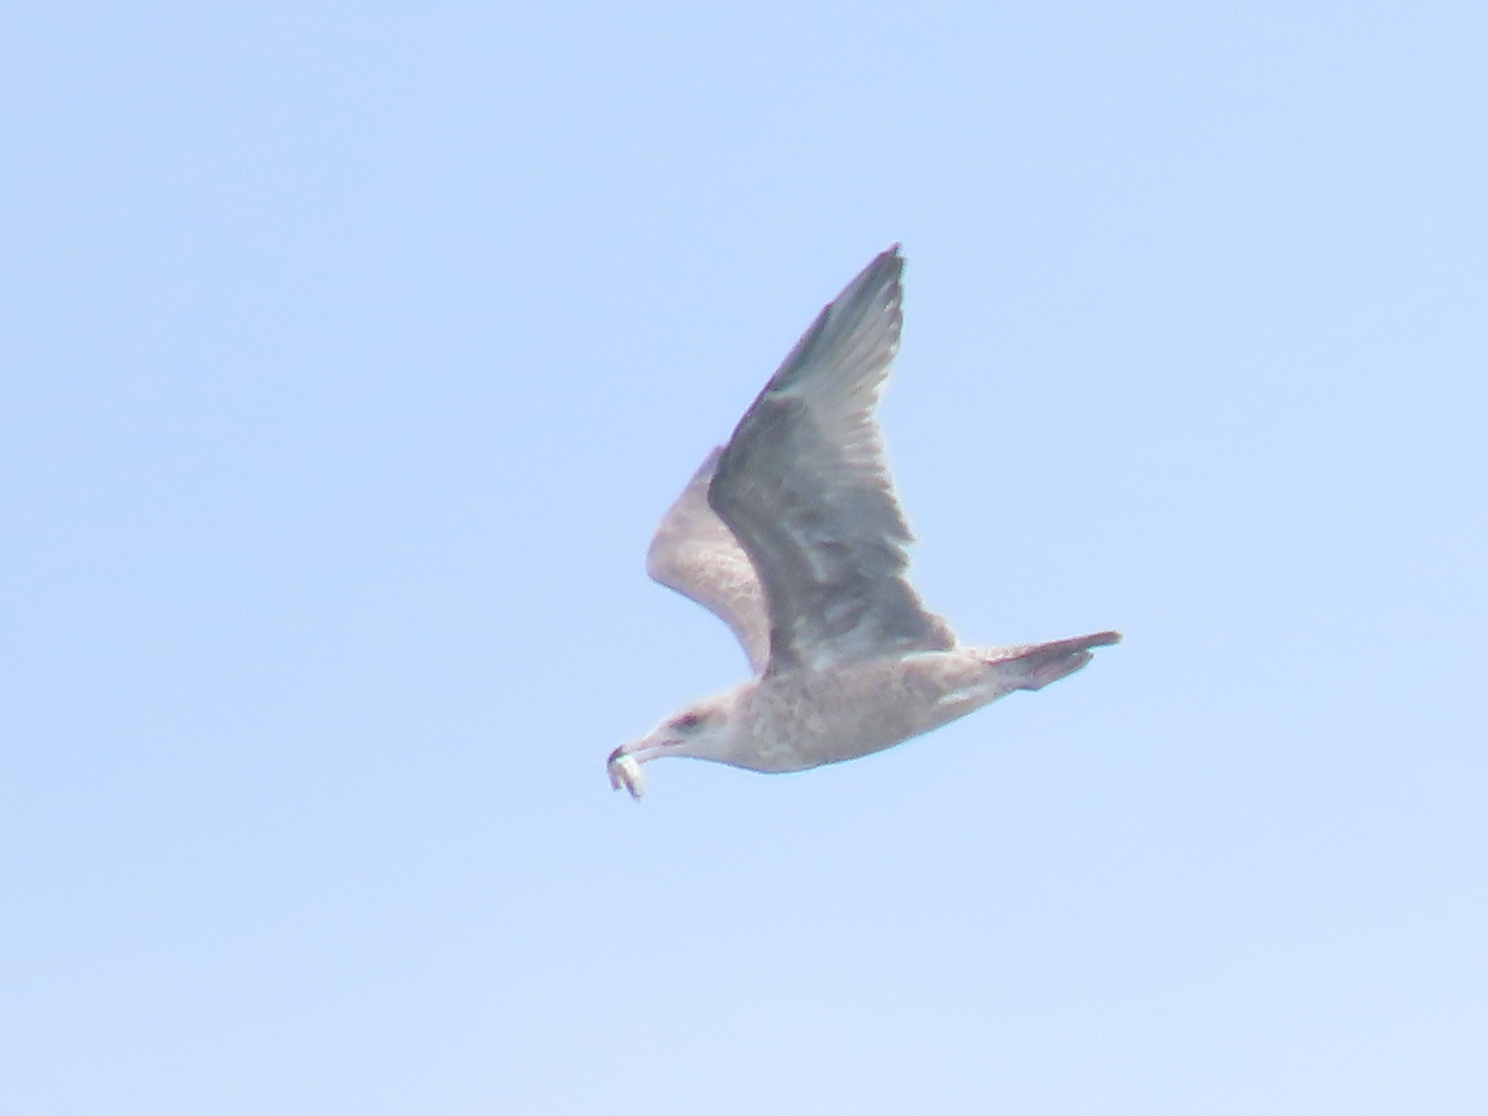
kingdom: Animalia
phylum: Chordata
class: Aves
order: Charadriiformes
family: Laridae
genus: Larus
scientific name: Larus smithsonianus
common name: American herring gull
